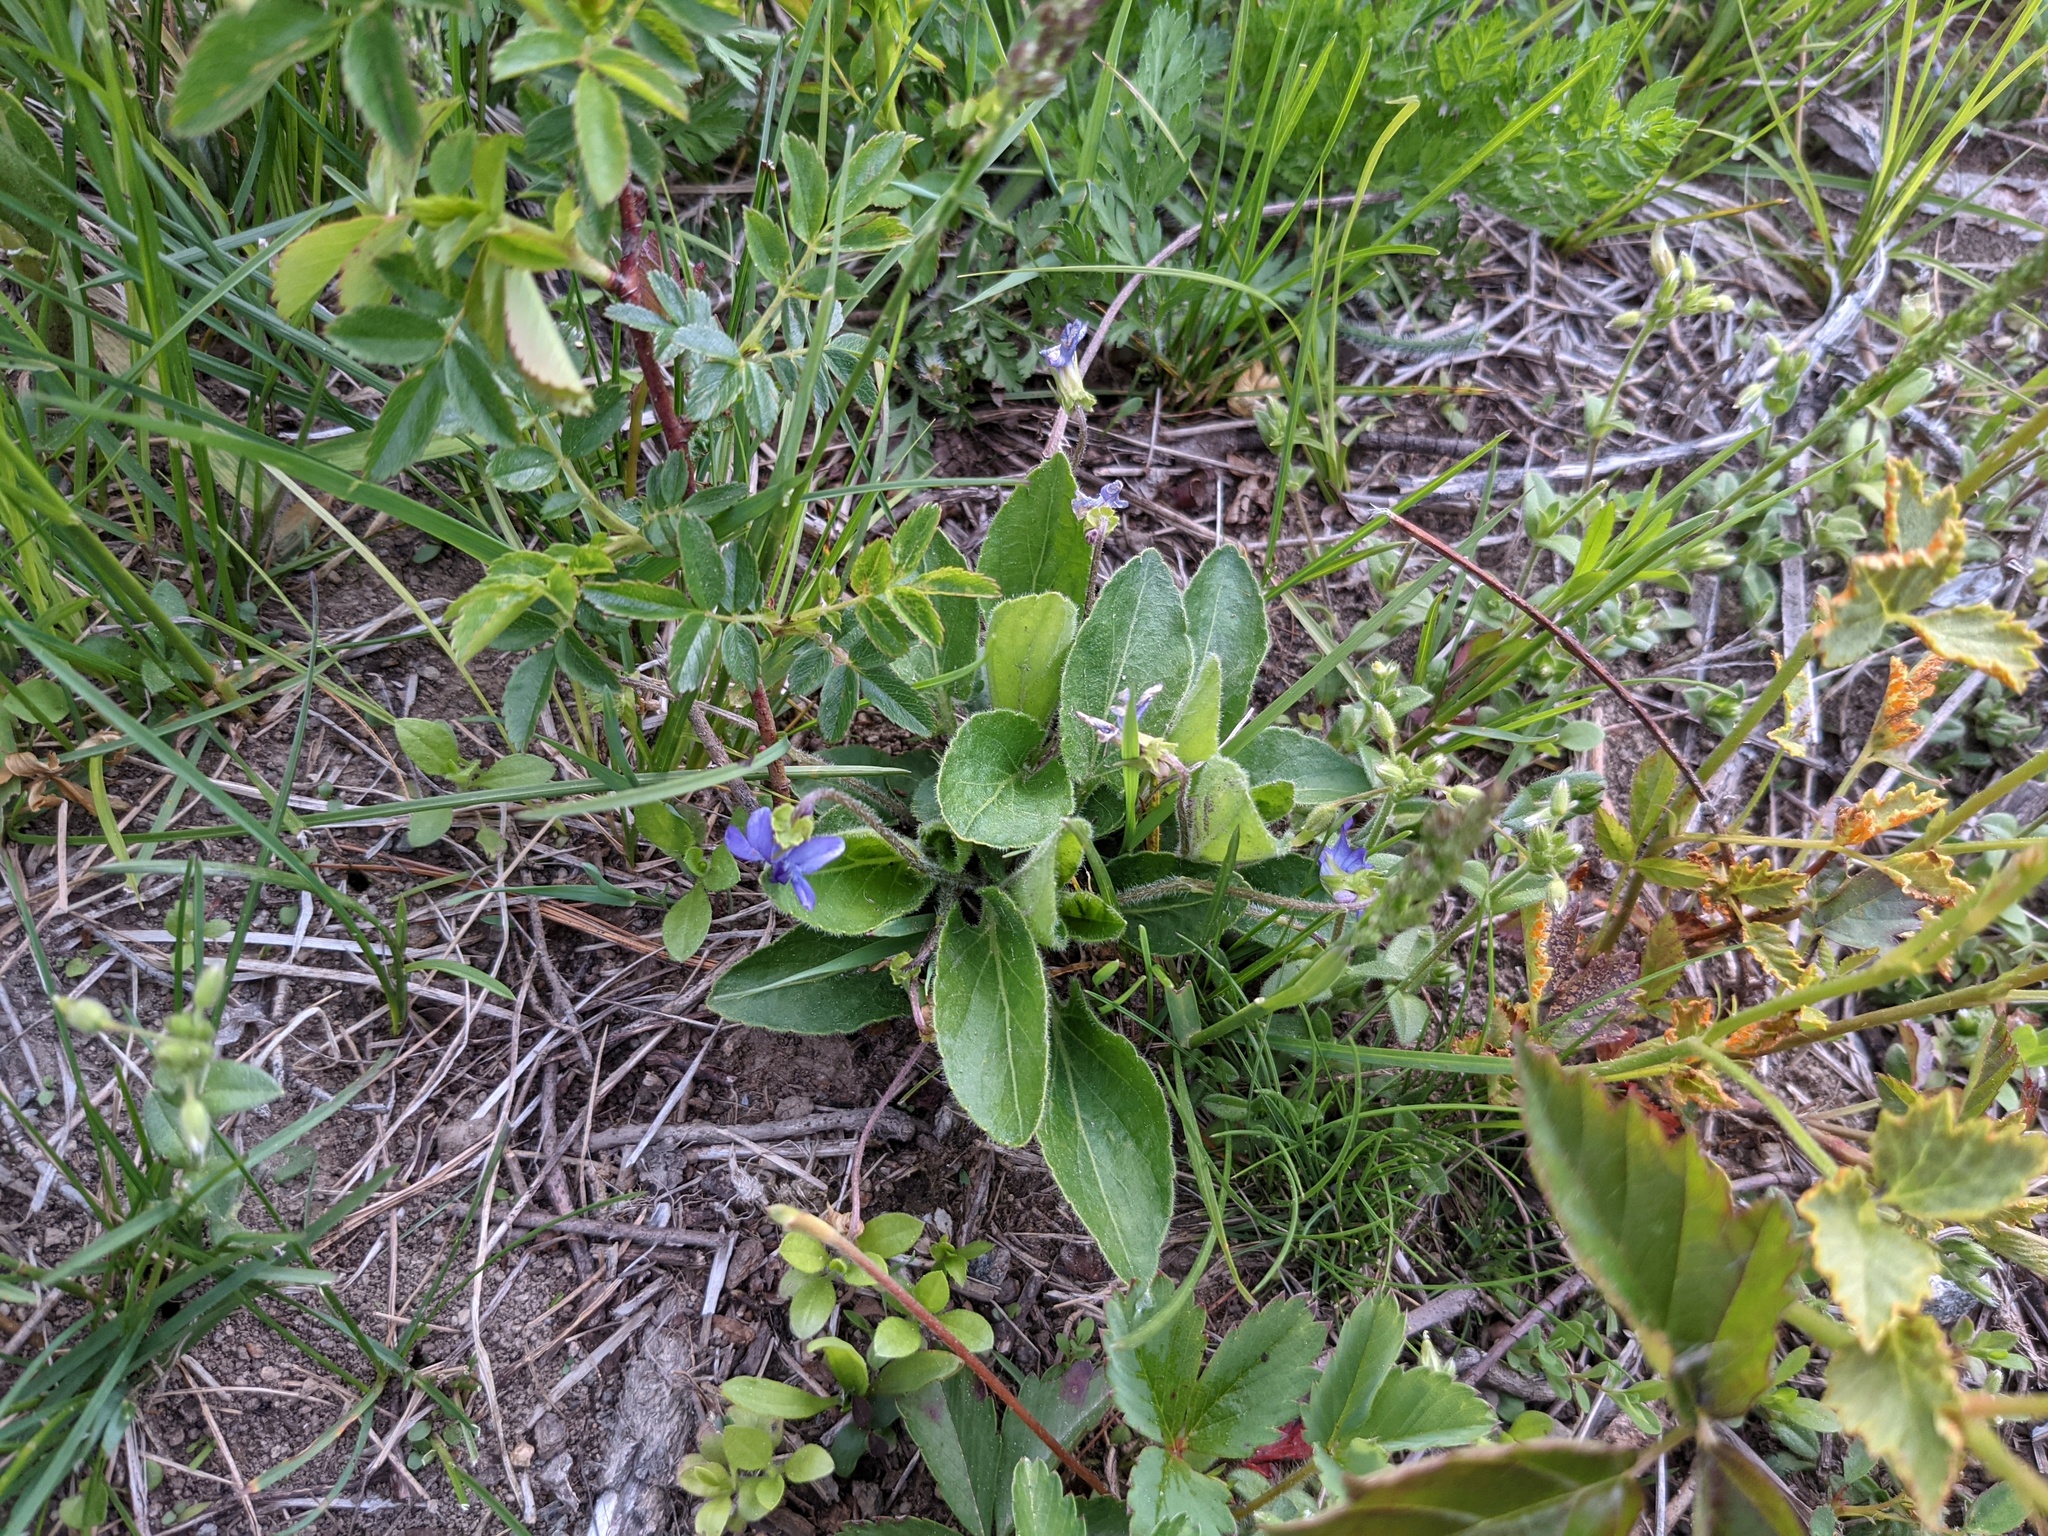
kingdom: Plantae
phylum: Tracheophyta
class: Magnoliopsida
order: Malpighiales
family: Violaceae
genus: Viola
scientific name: Viola sagittata
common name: Arrowhead violet
